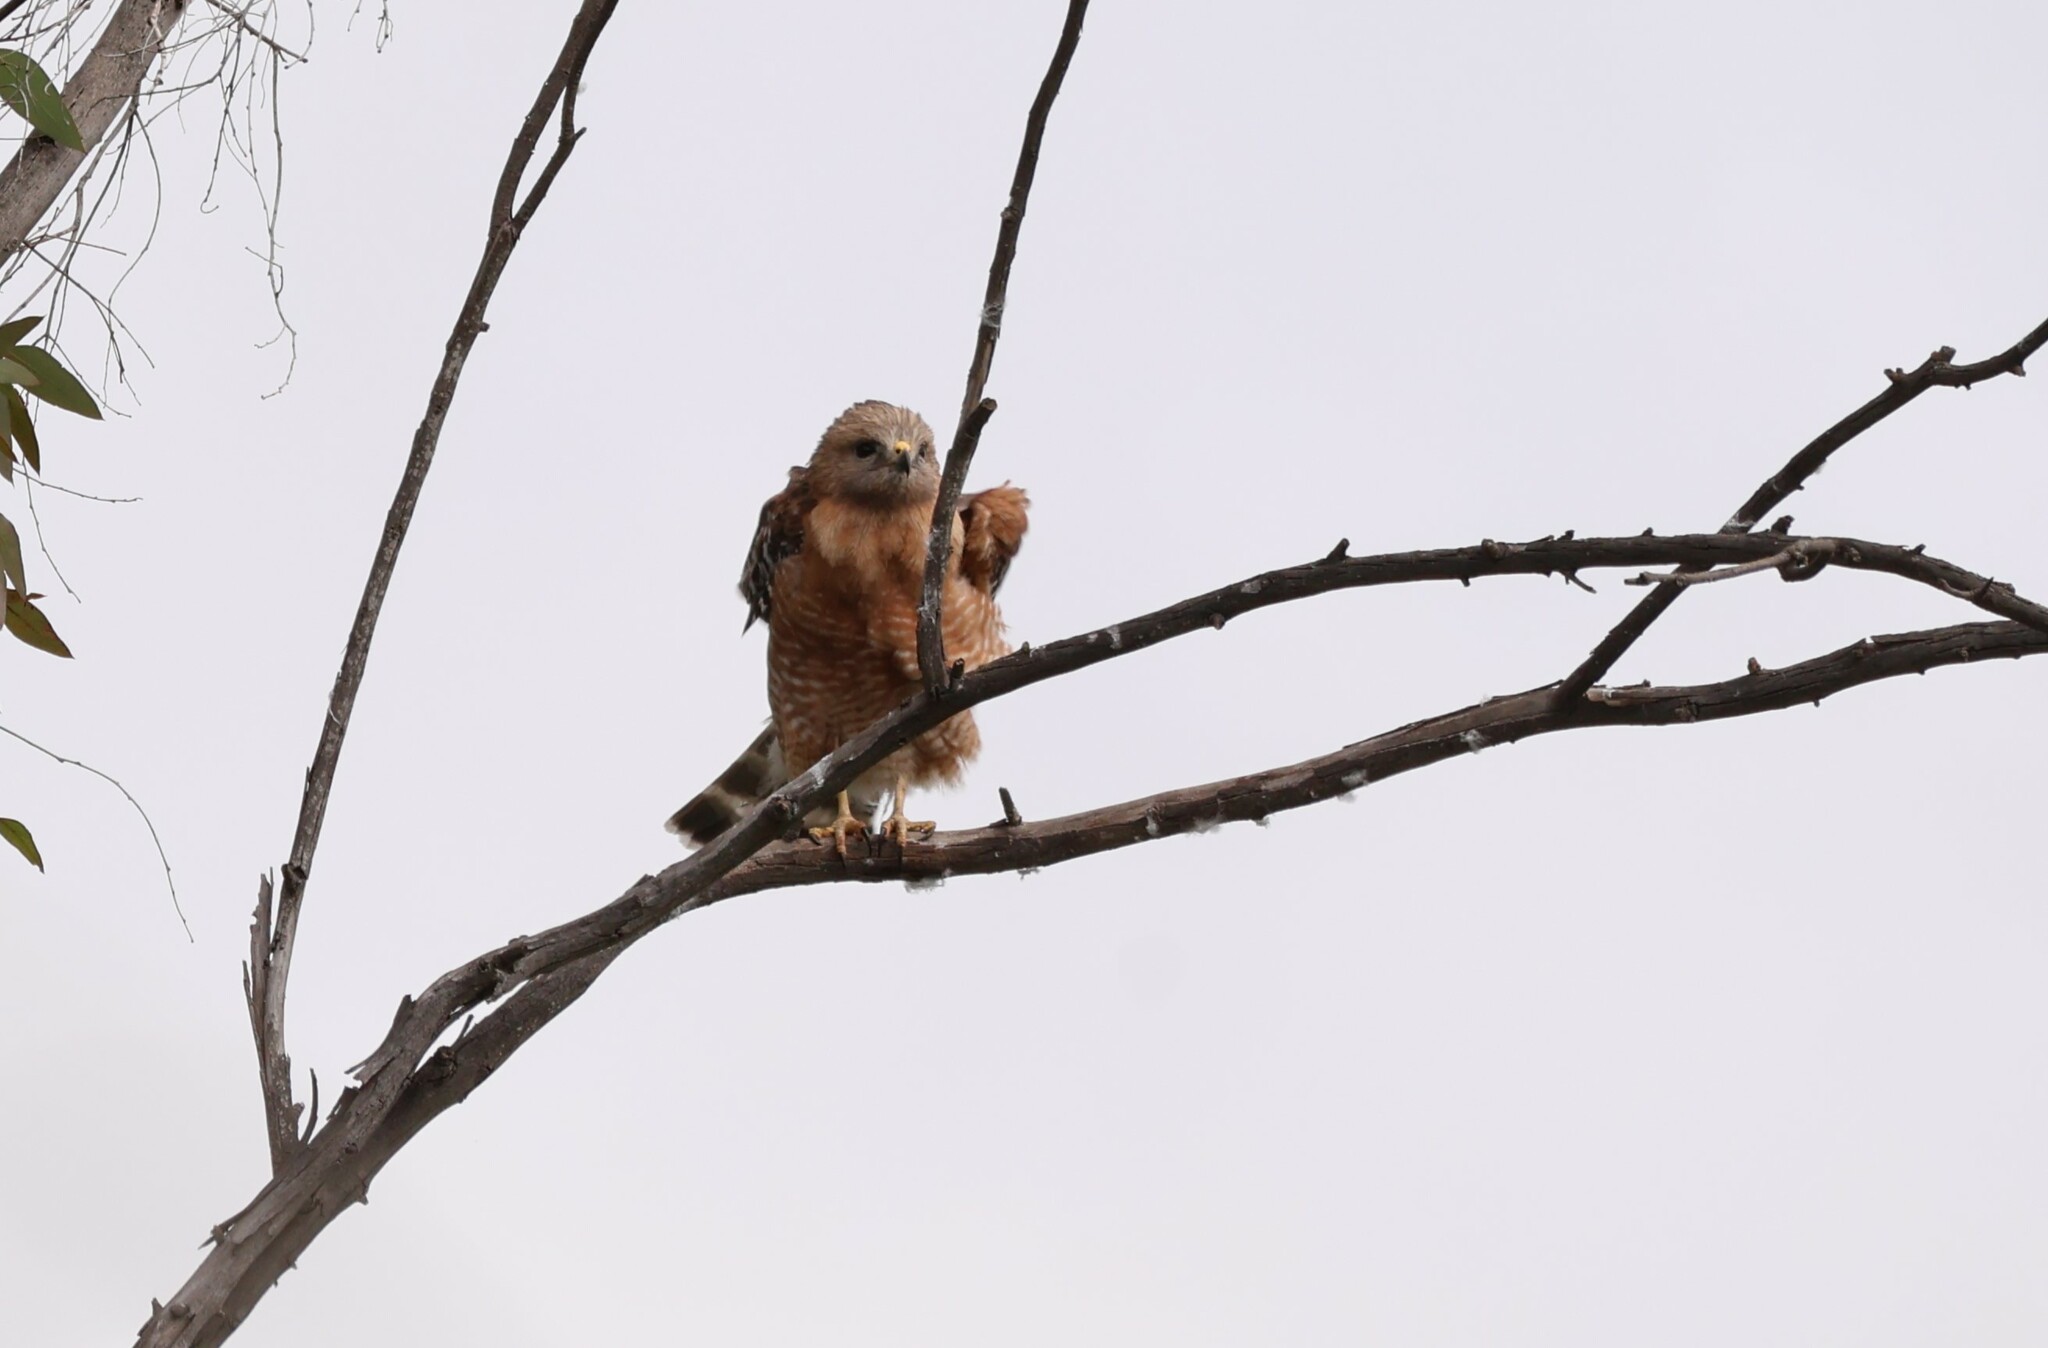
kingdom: Animalia
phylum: Chordata
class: Aves
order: Accipitriformes
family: Accipitridae
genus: Buteo
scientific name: Buteo lineatus
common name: Red-shouldered hawk
